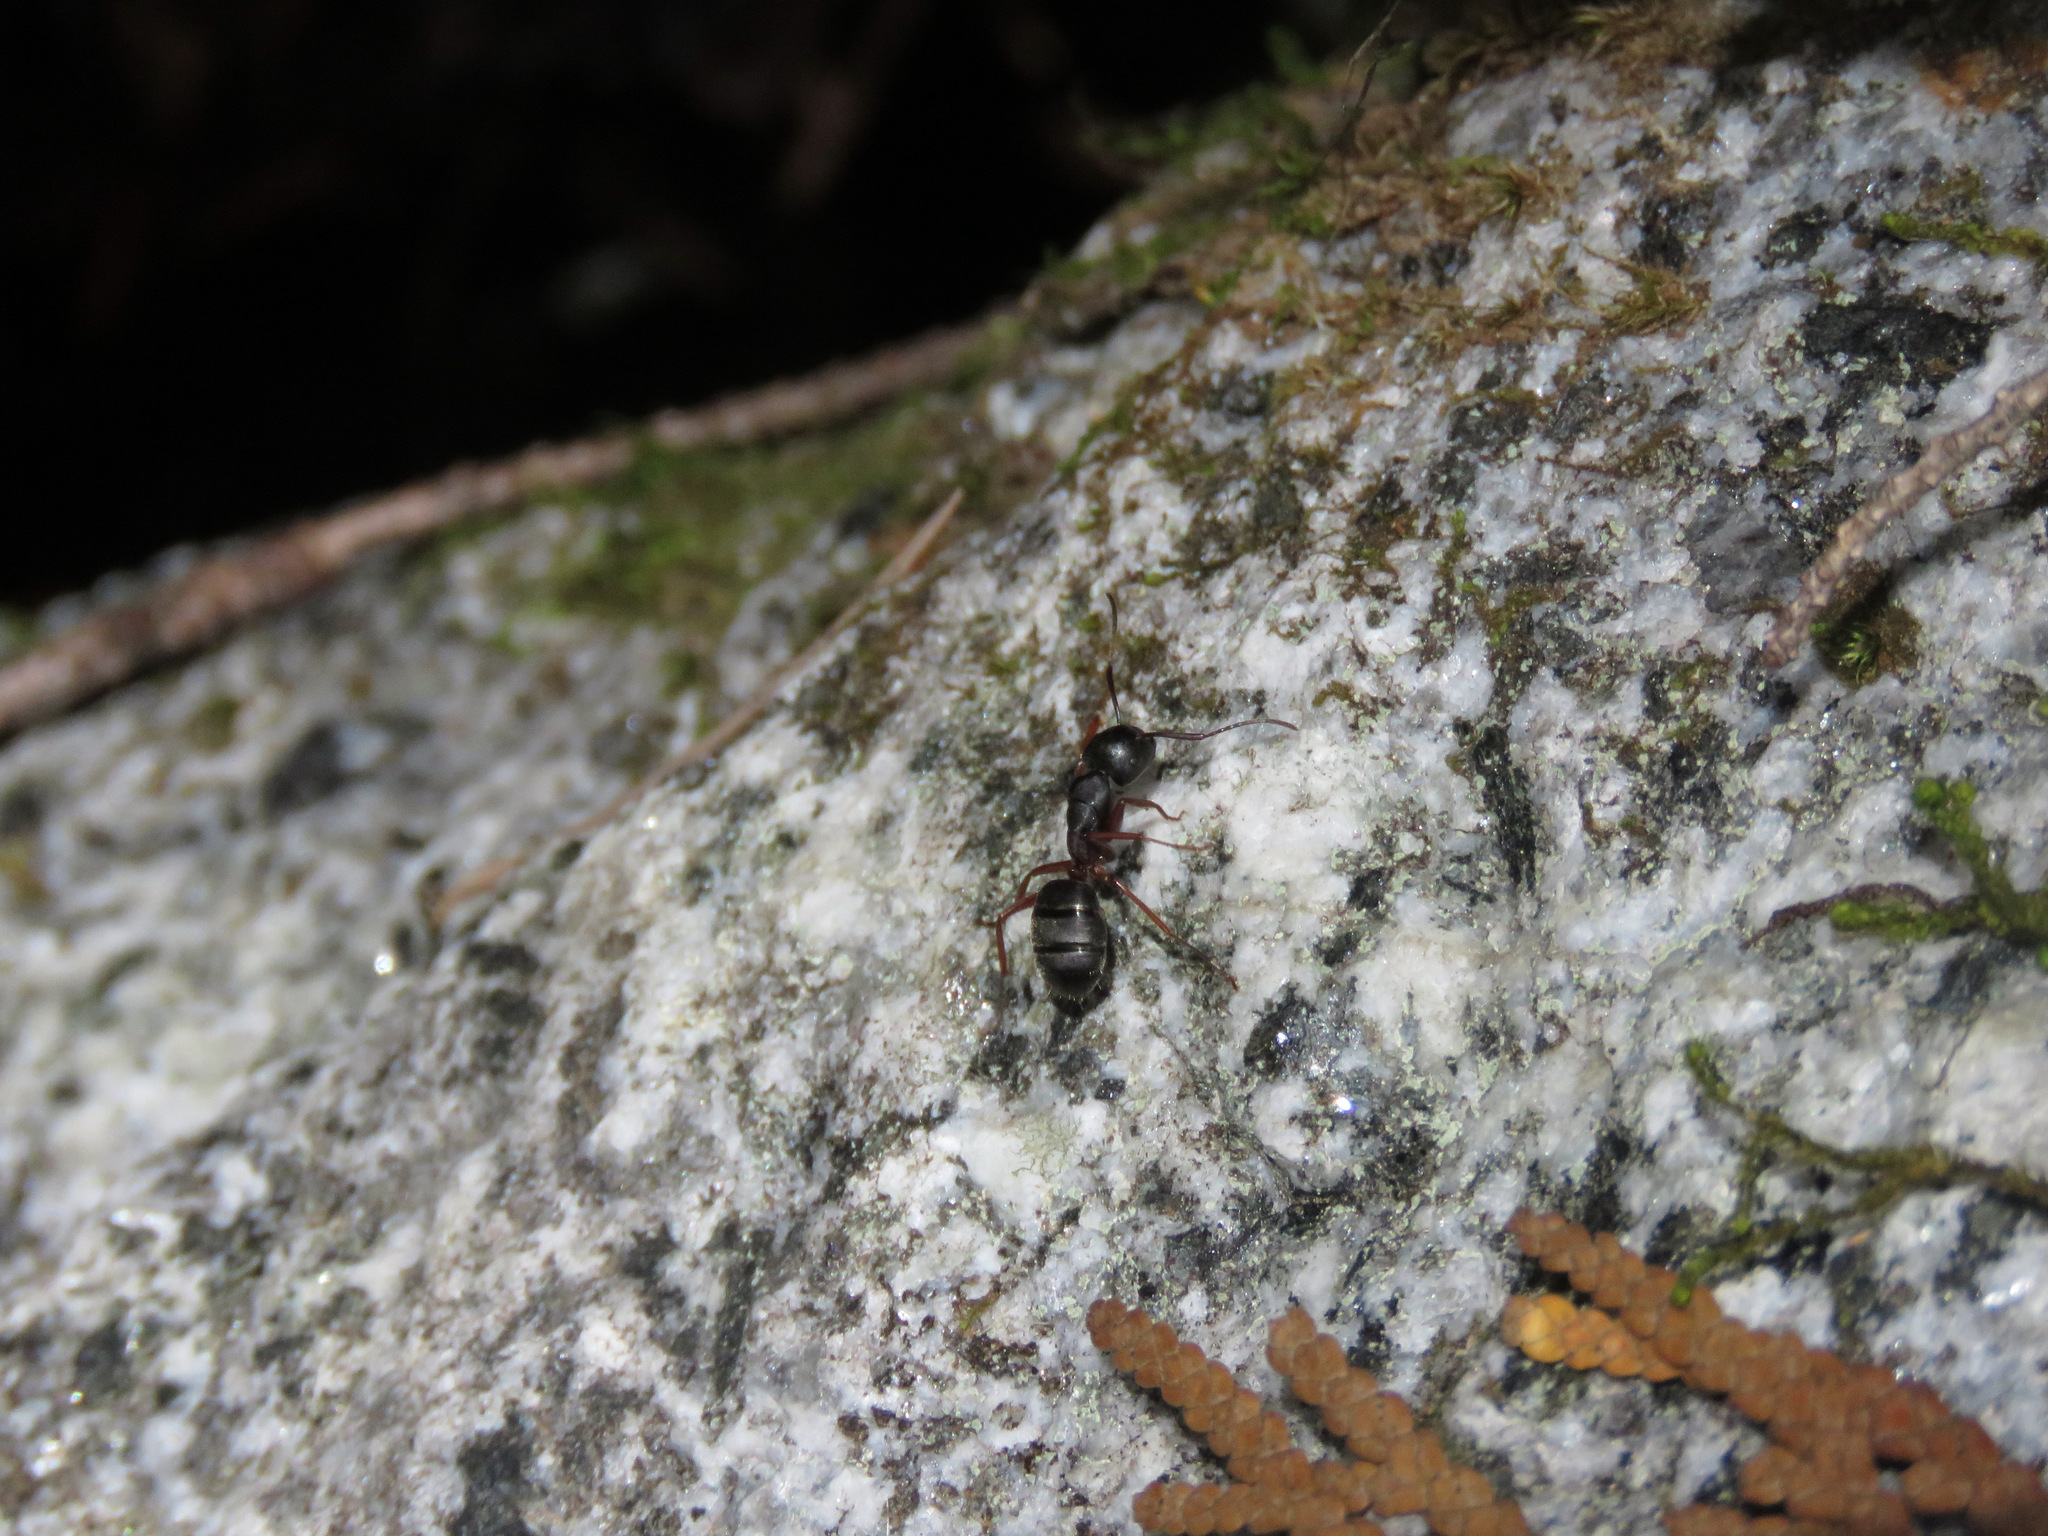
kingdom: Animalia
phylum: Arthropoda
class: Insecta
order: Hymenoptera
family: Formicidae
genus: Camponotus
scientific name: Camponotus herculeanus
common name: Hercules ant
